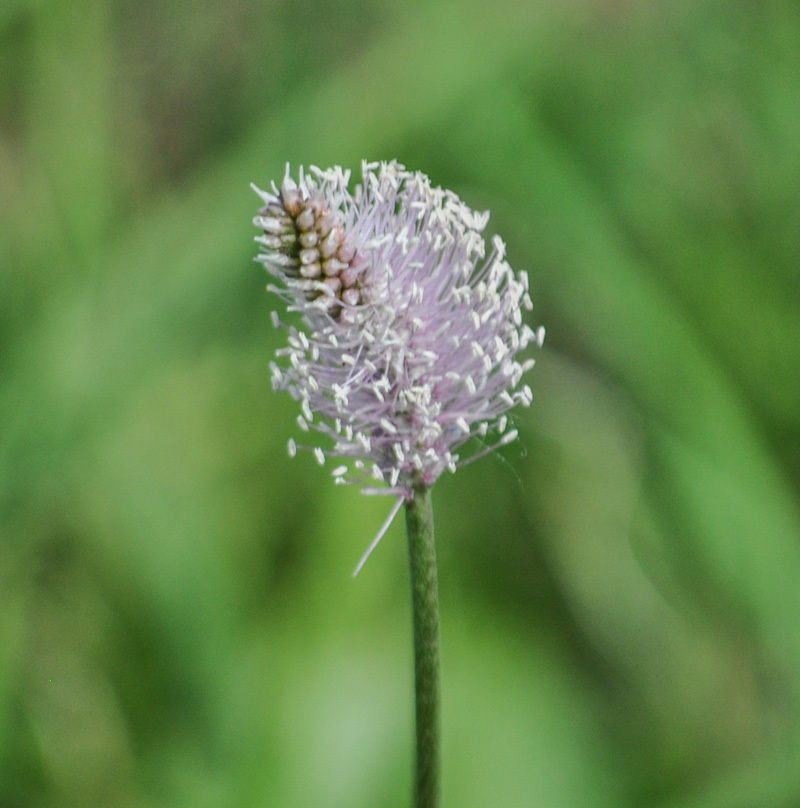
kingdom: Plantae
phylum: Tracheophyta
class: Magnoliopsida
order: Lamiales
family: Plantaginaceae
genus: Plantago
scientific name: Plantago media
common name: Hoary plantain
